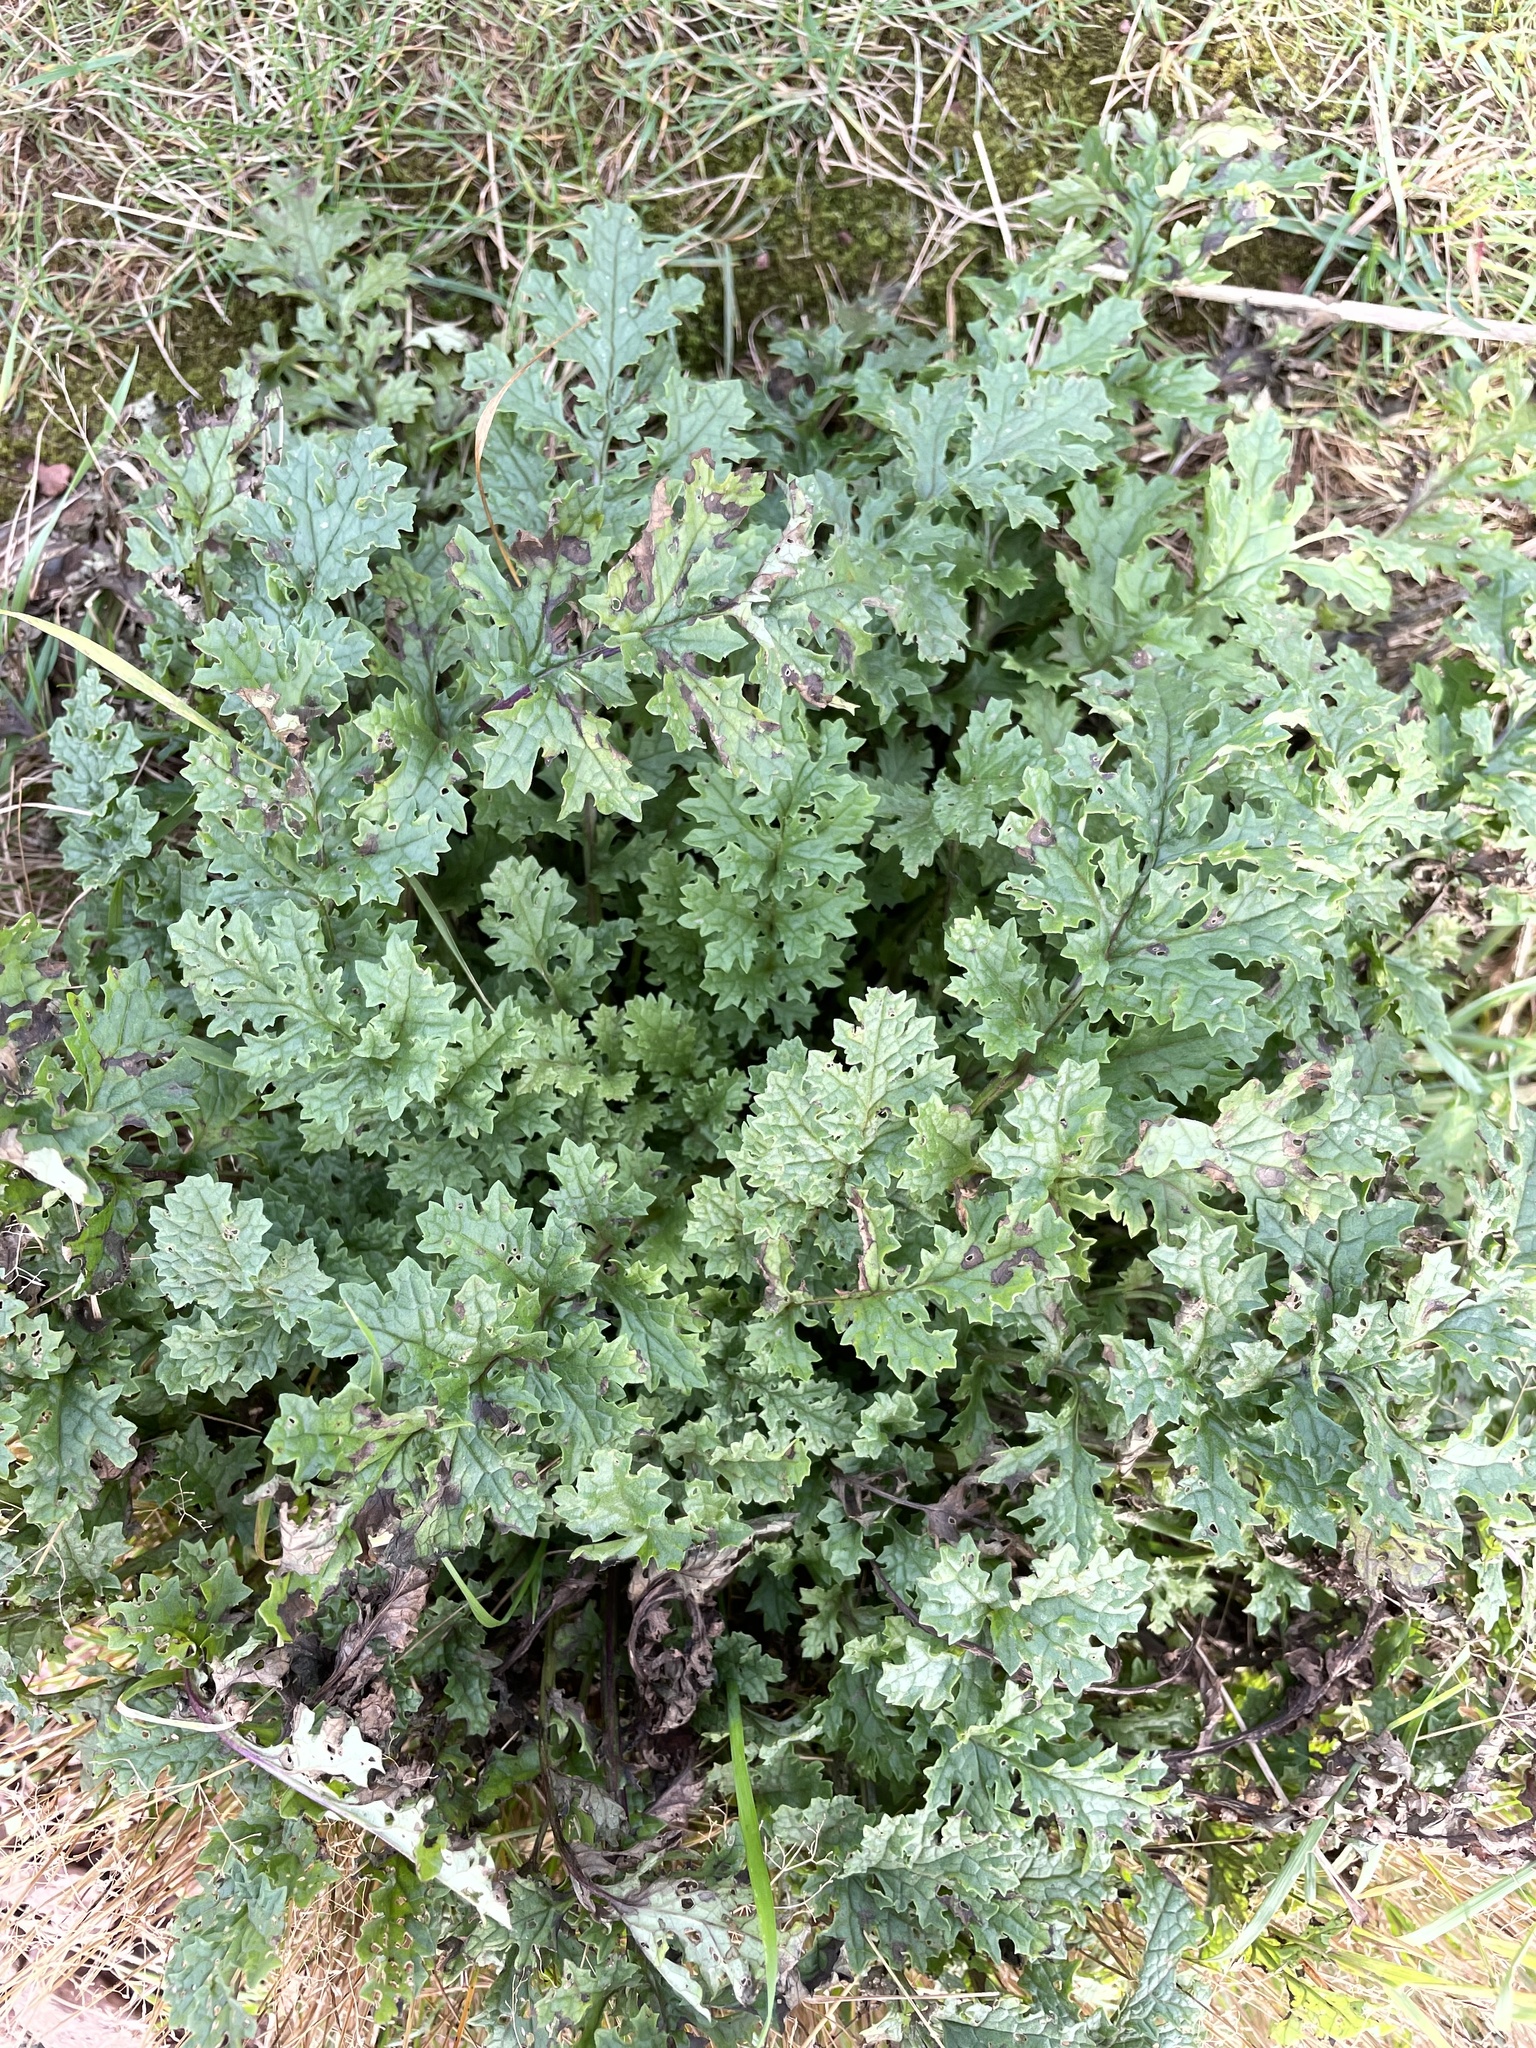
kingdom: Plantae
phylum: Tracheophyta
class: Magnoliopsida
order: Asterales
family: Asteraceae
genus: Jacobaea
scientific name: Jacobaea vulgaris
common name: Stinking willie
